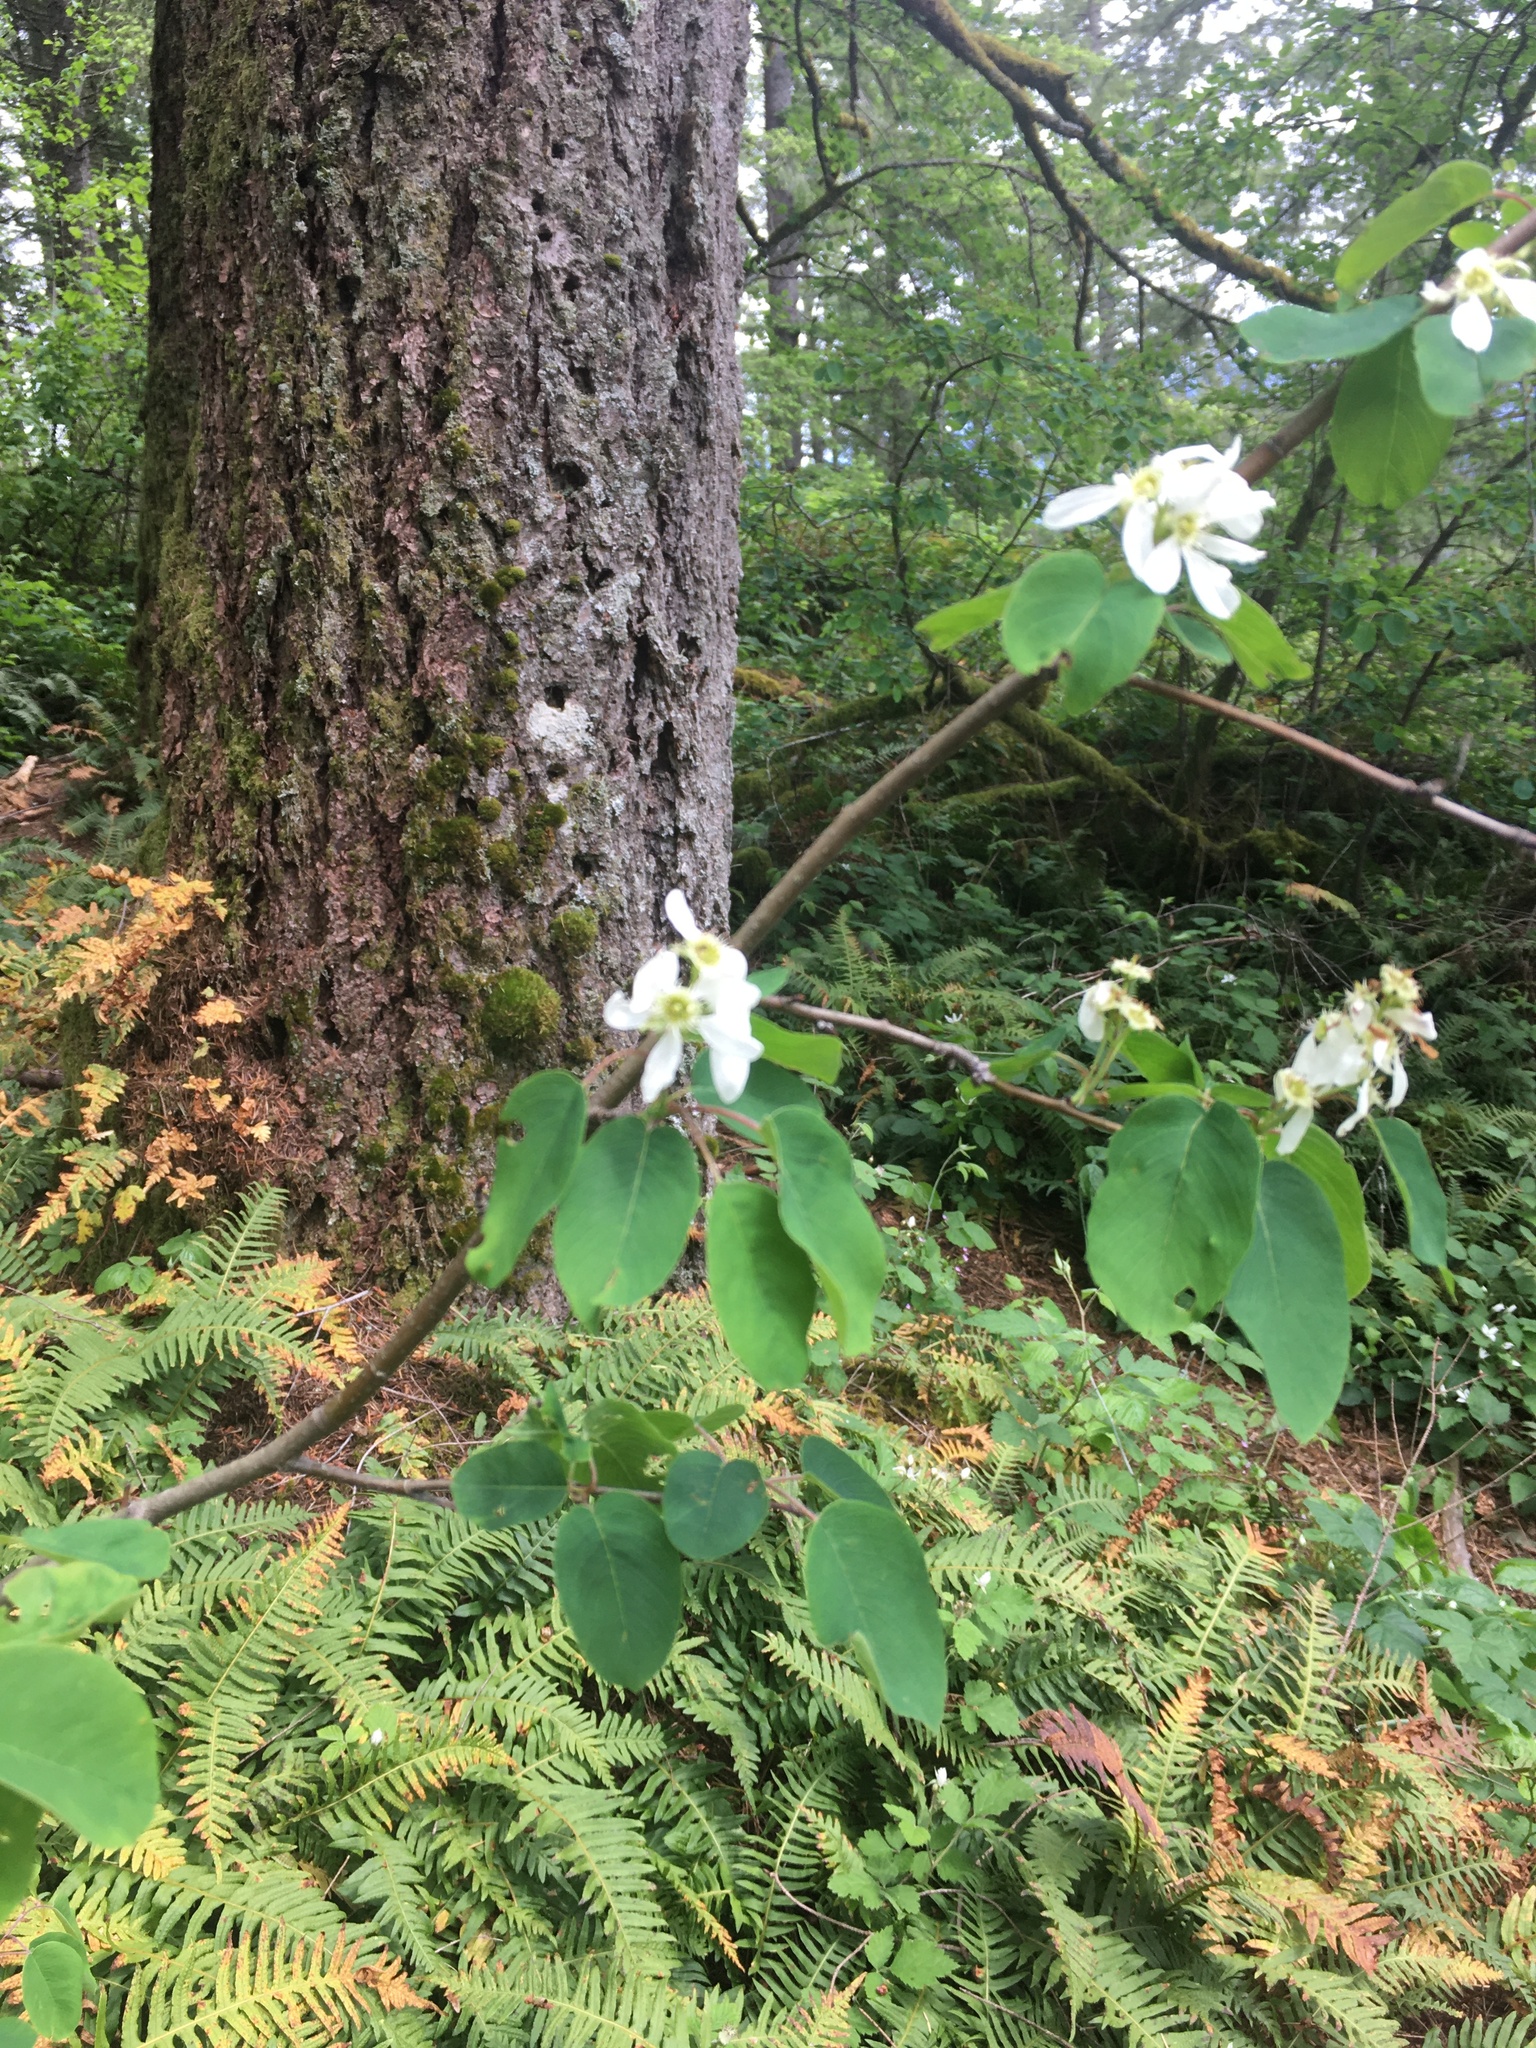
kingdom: Plantae
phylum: Tracheophyta
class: Magnoliopsida
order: Rosales
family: Rosaceae
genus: Amelanchier
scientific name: Amelanchier alnifolia
